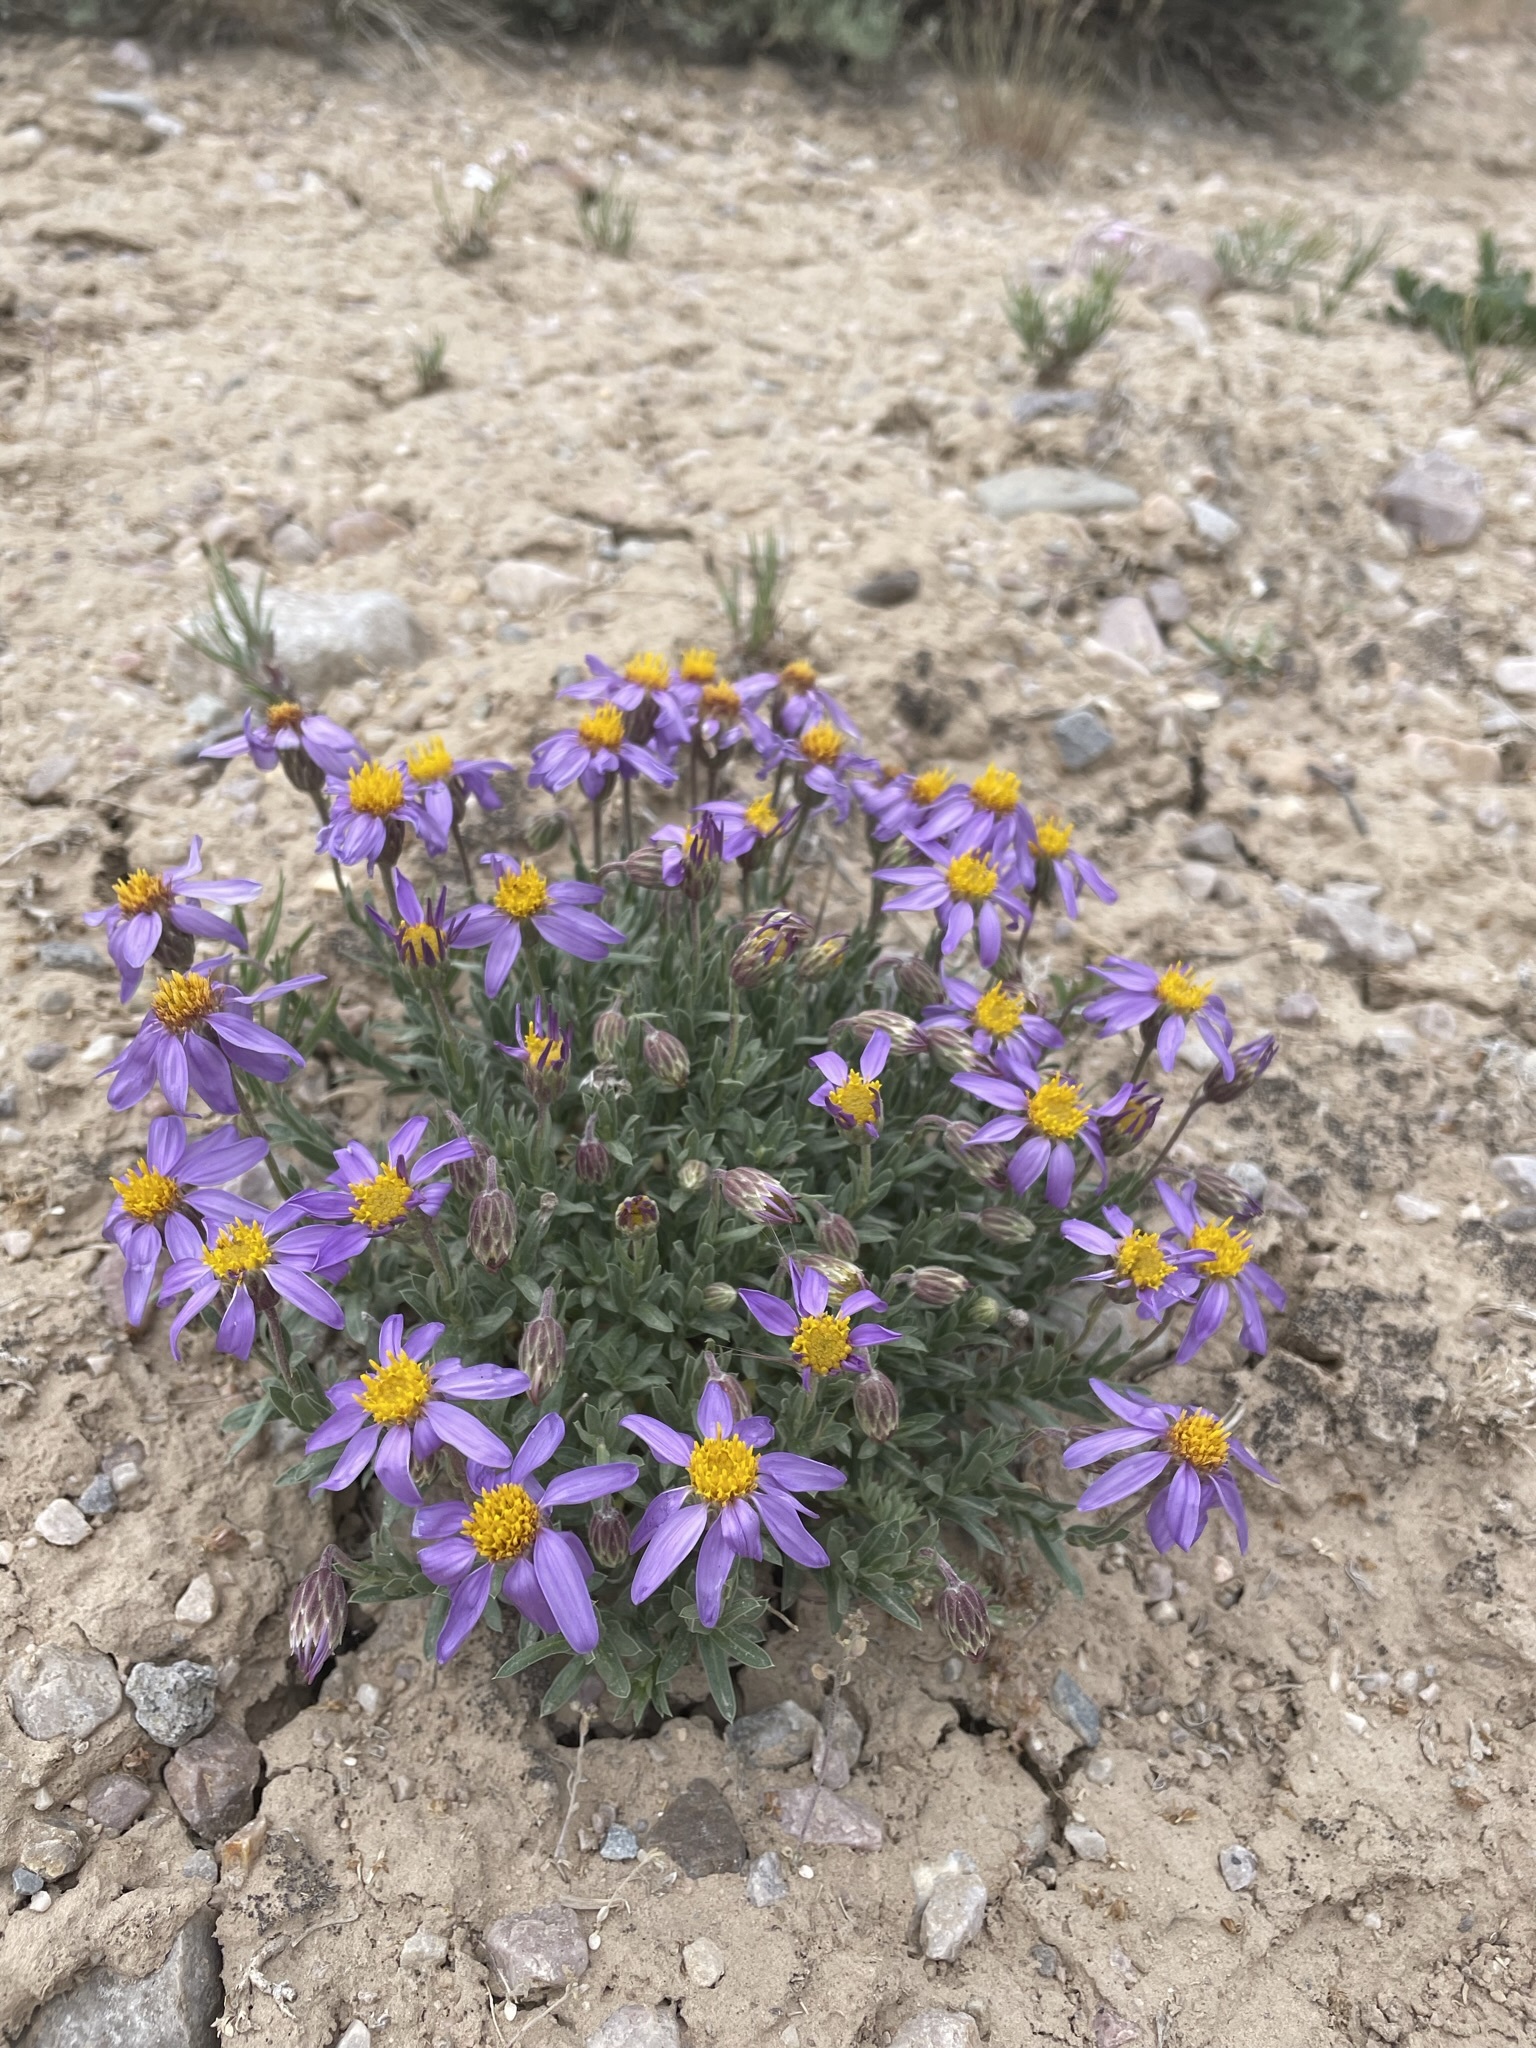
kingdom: Plantae
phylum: Tracheophyta
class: Magnoliopsida
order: Asterales
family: Asteraceae
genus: Ionactis
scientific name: Ionactis alpina
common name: Crag aster
